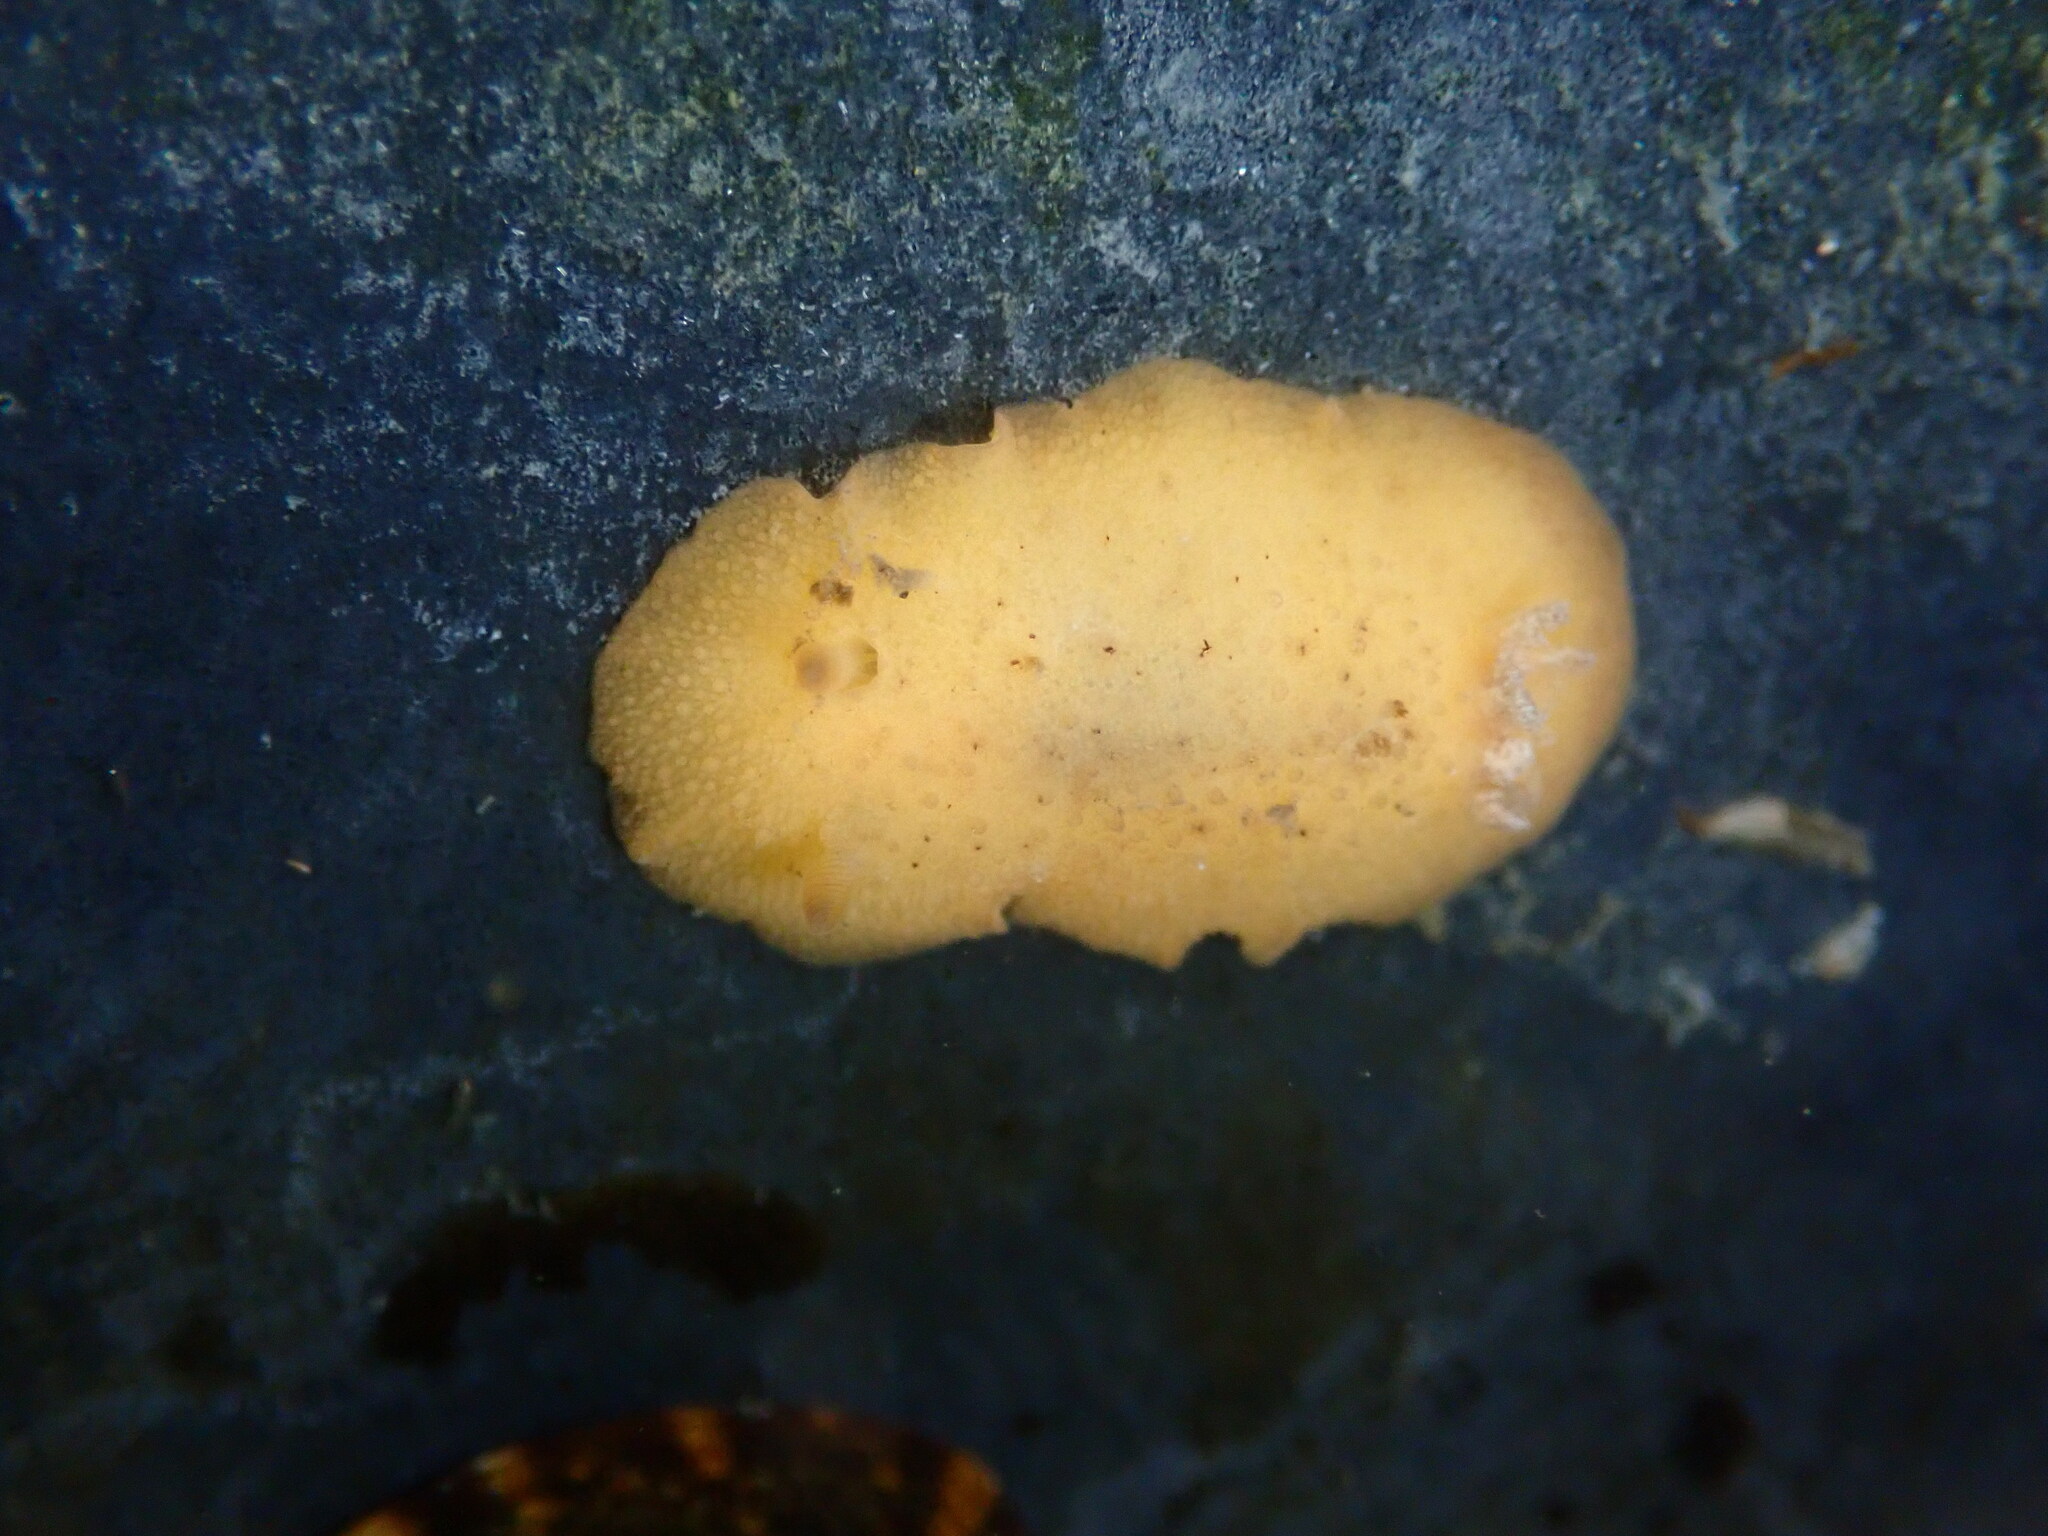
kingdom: Animalia
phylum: Mollusca
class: Gastropoda
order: Nudibranchia
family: Discodorididae
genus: Geitodoris
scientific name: Geitodoris heathi
